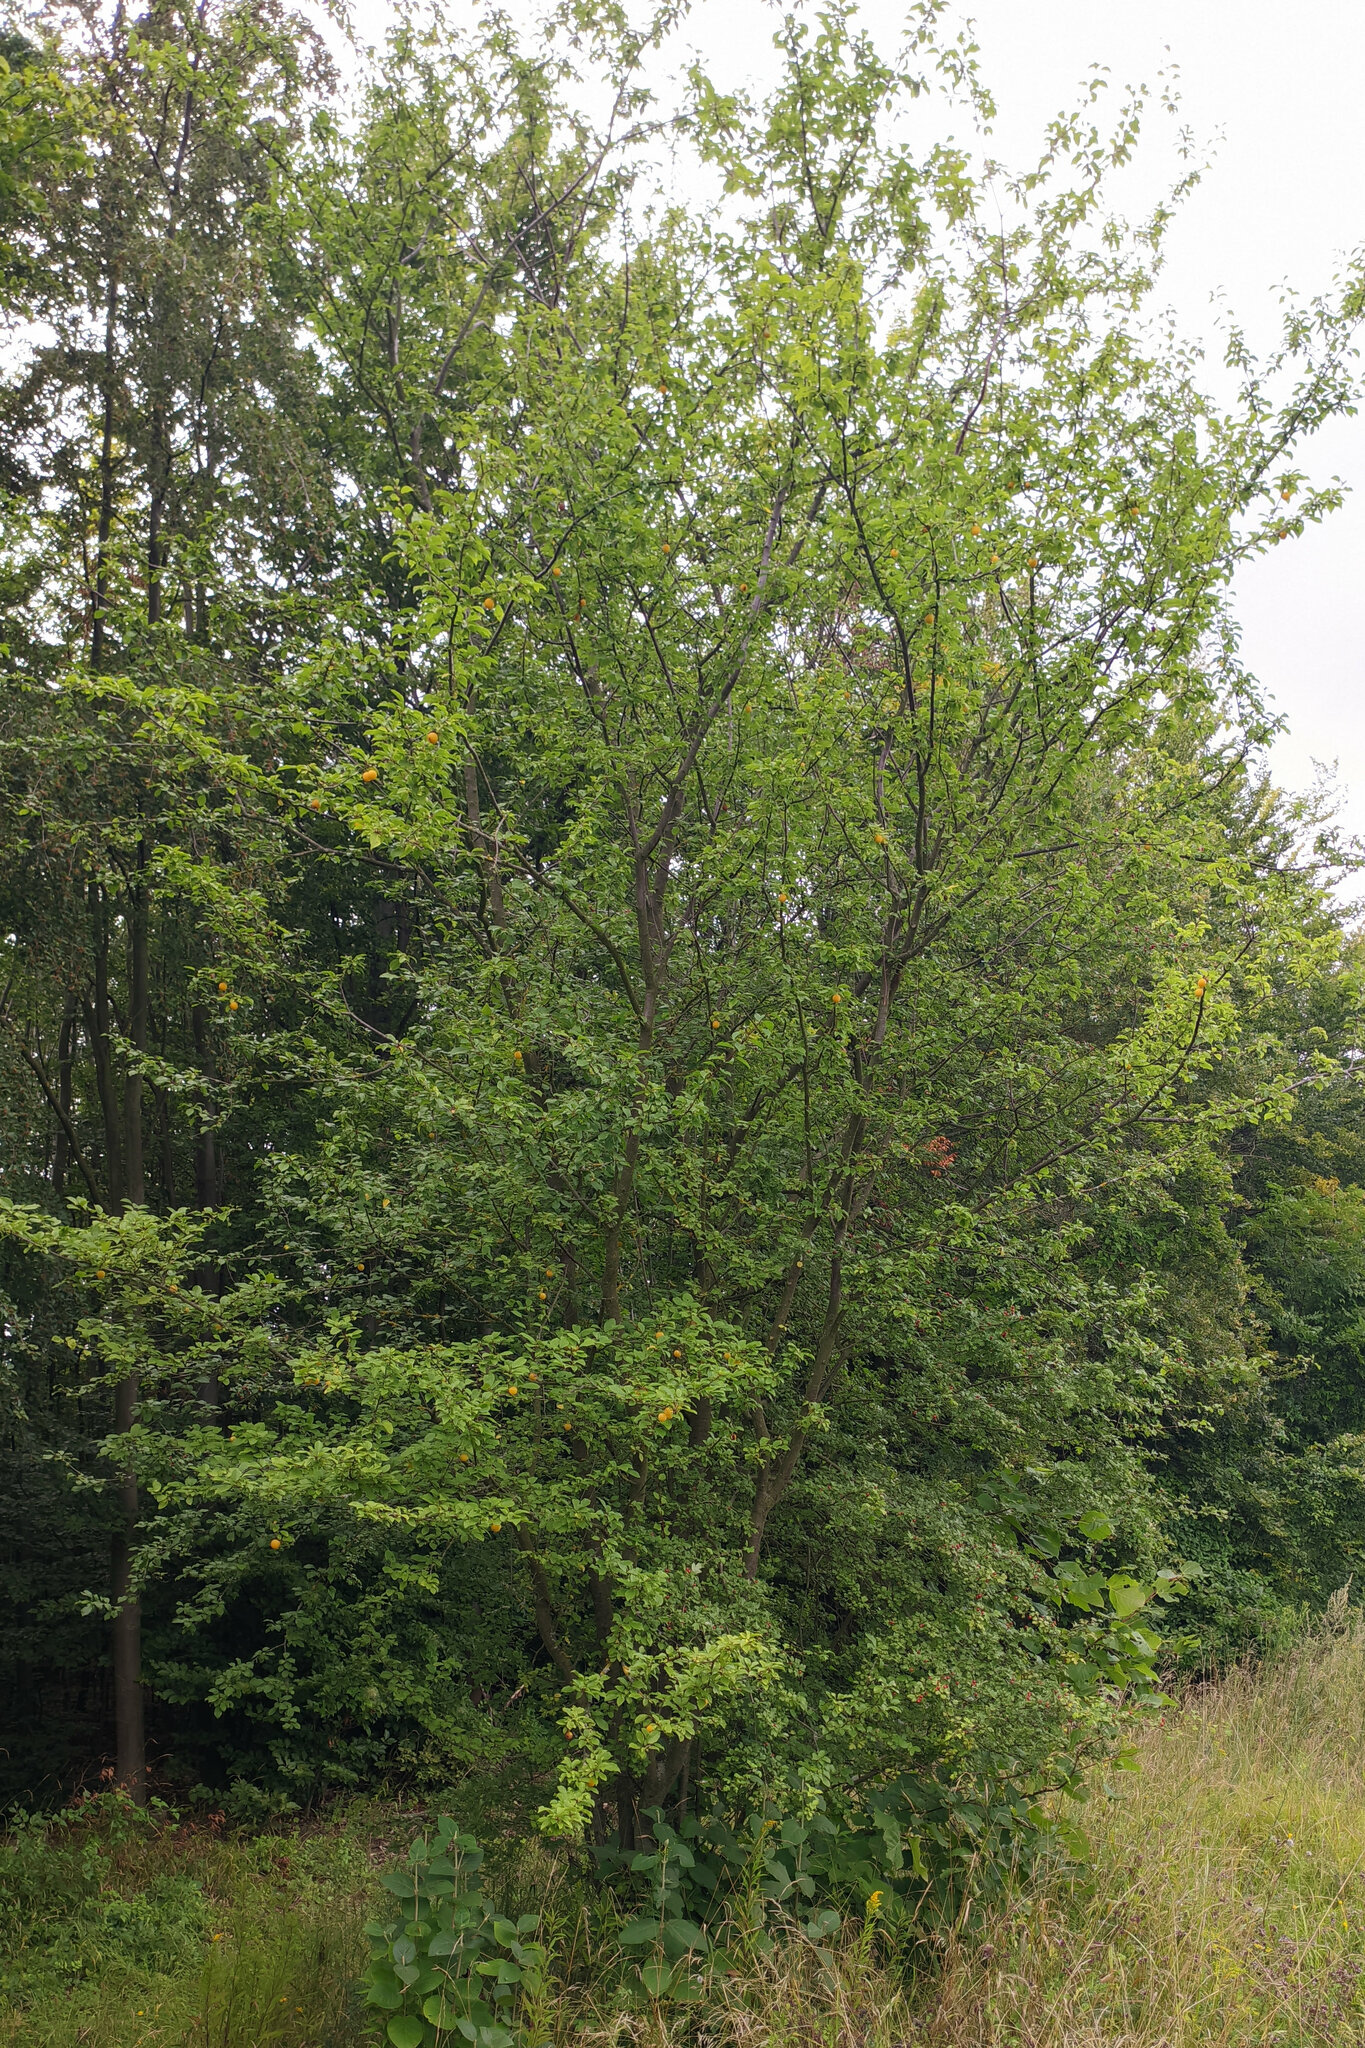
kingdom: Plantae
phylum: Tracheophyta
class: Magnoliopsida
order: Rosales
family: Rosaceae
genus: Prunus
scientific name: Prunus cerasifera
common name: Cherry plum
